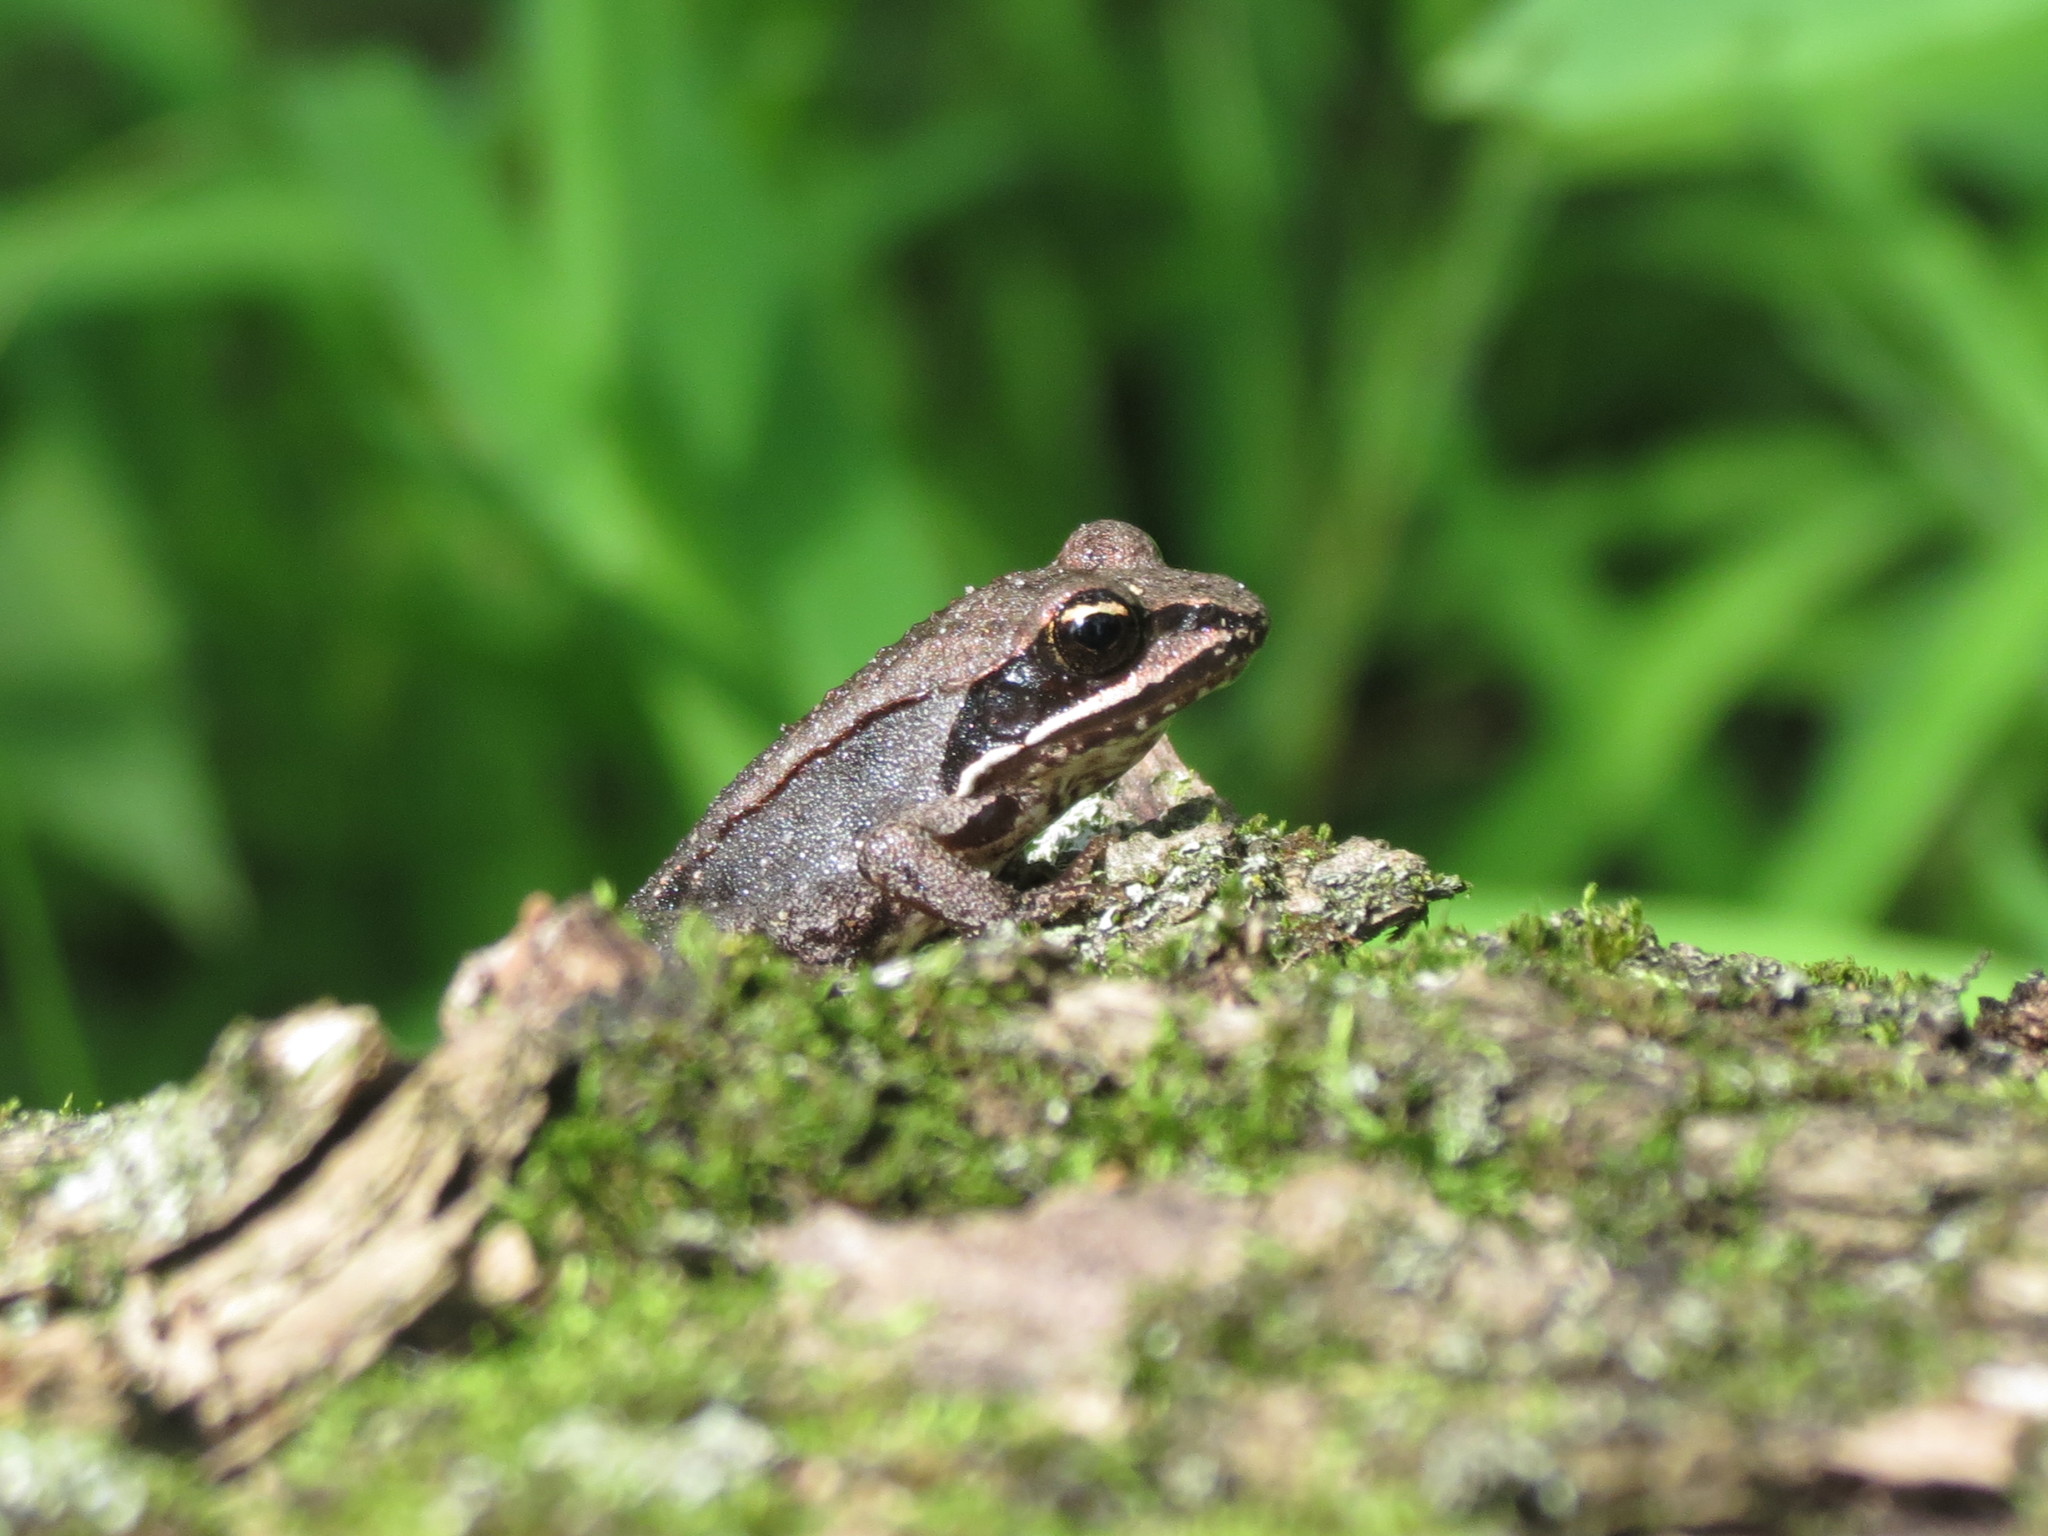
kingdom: Animalia
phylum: Chordata
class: Amphibia
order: Anura
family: Ranidae
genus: Lithobates
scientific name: Lithobates sylvaticus
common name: Wood frog
